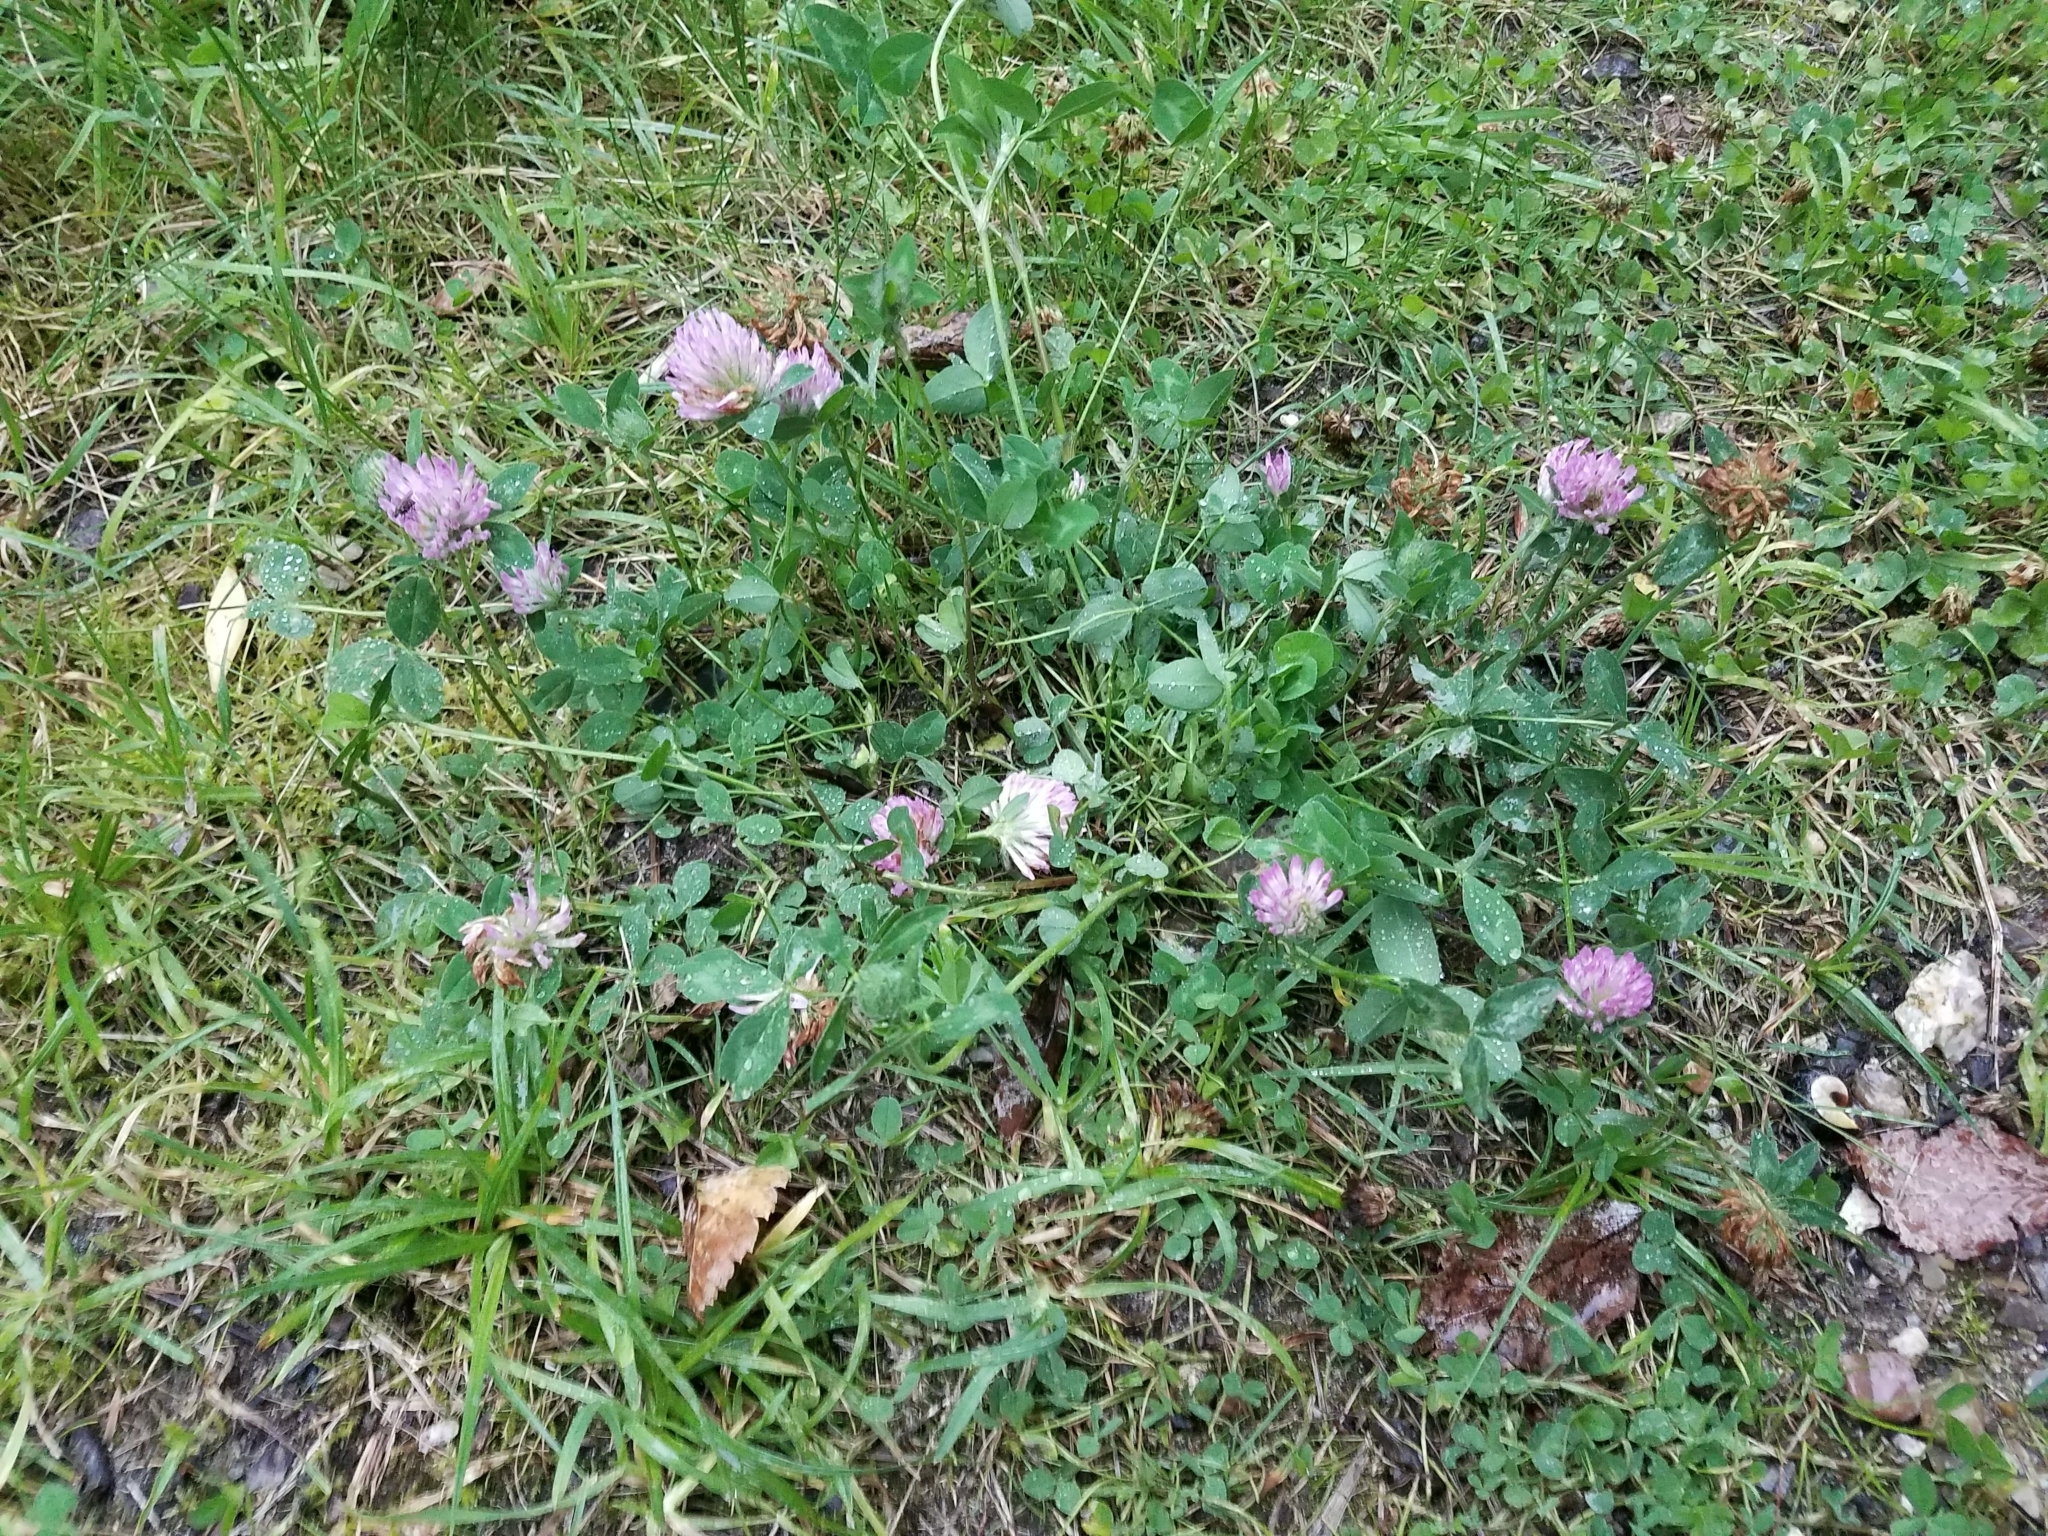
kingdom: Plantae
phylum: Tracheophyta
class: Magnoliopsida
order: Fabales
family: Fabaceae
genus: Trifolium
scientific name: Trifolium pratense
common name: Red clover
